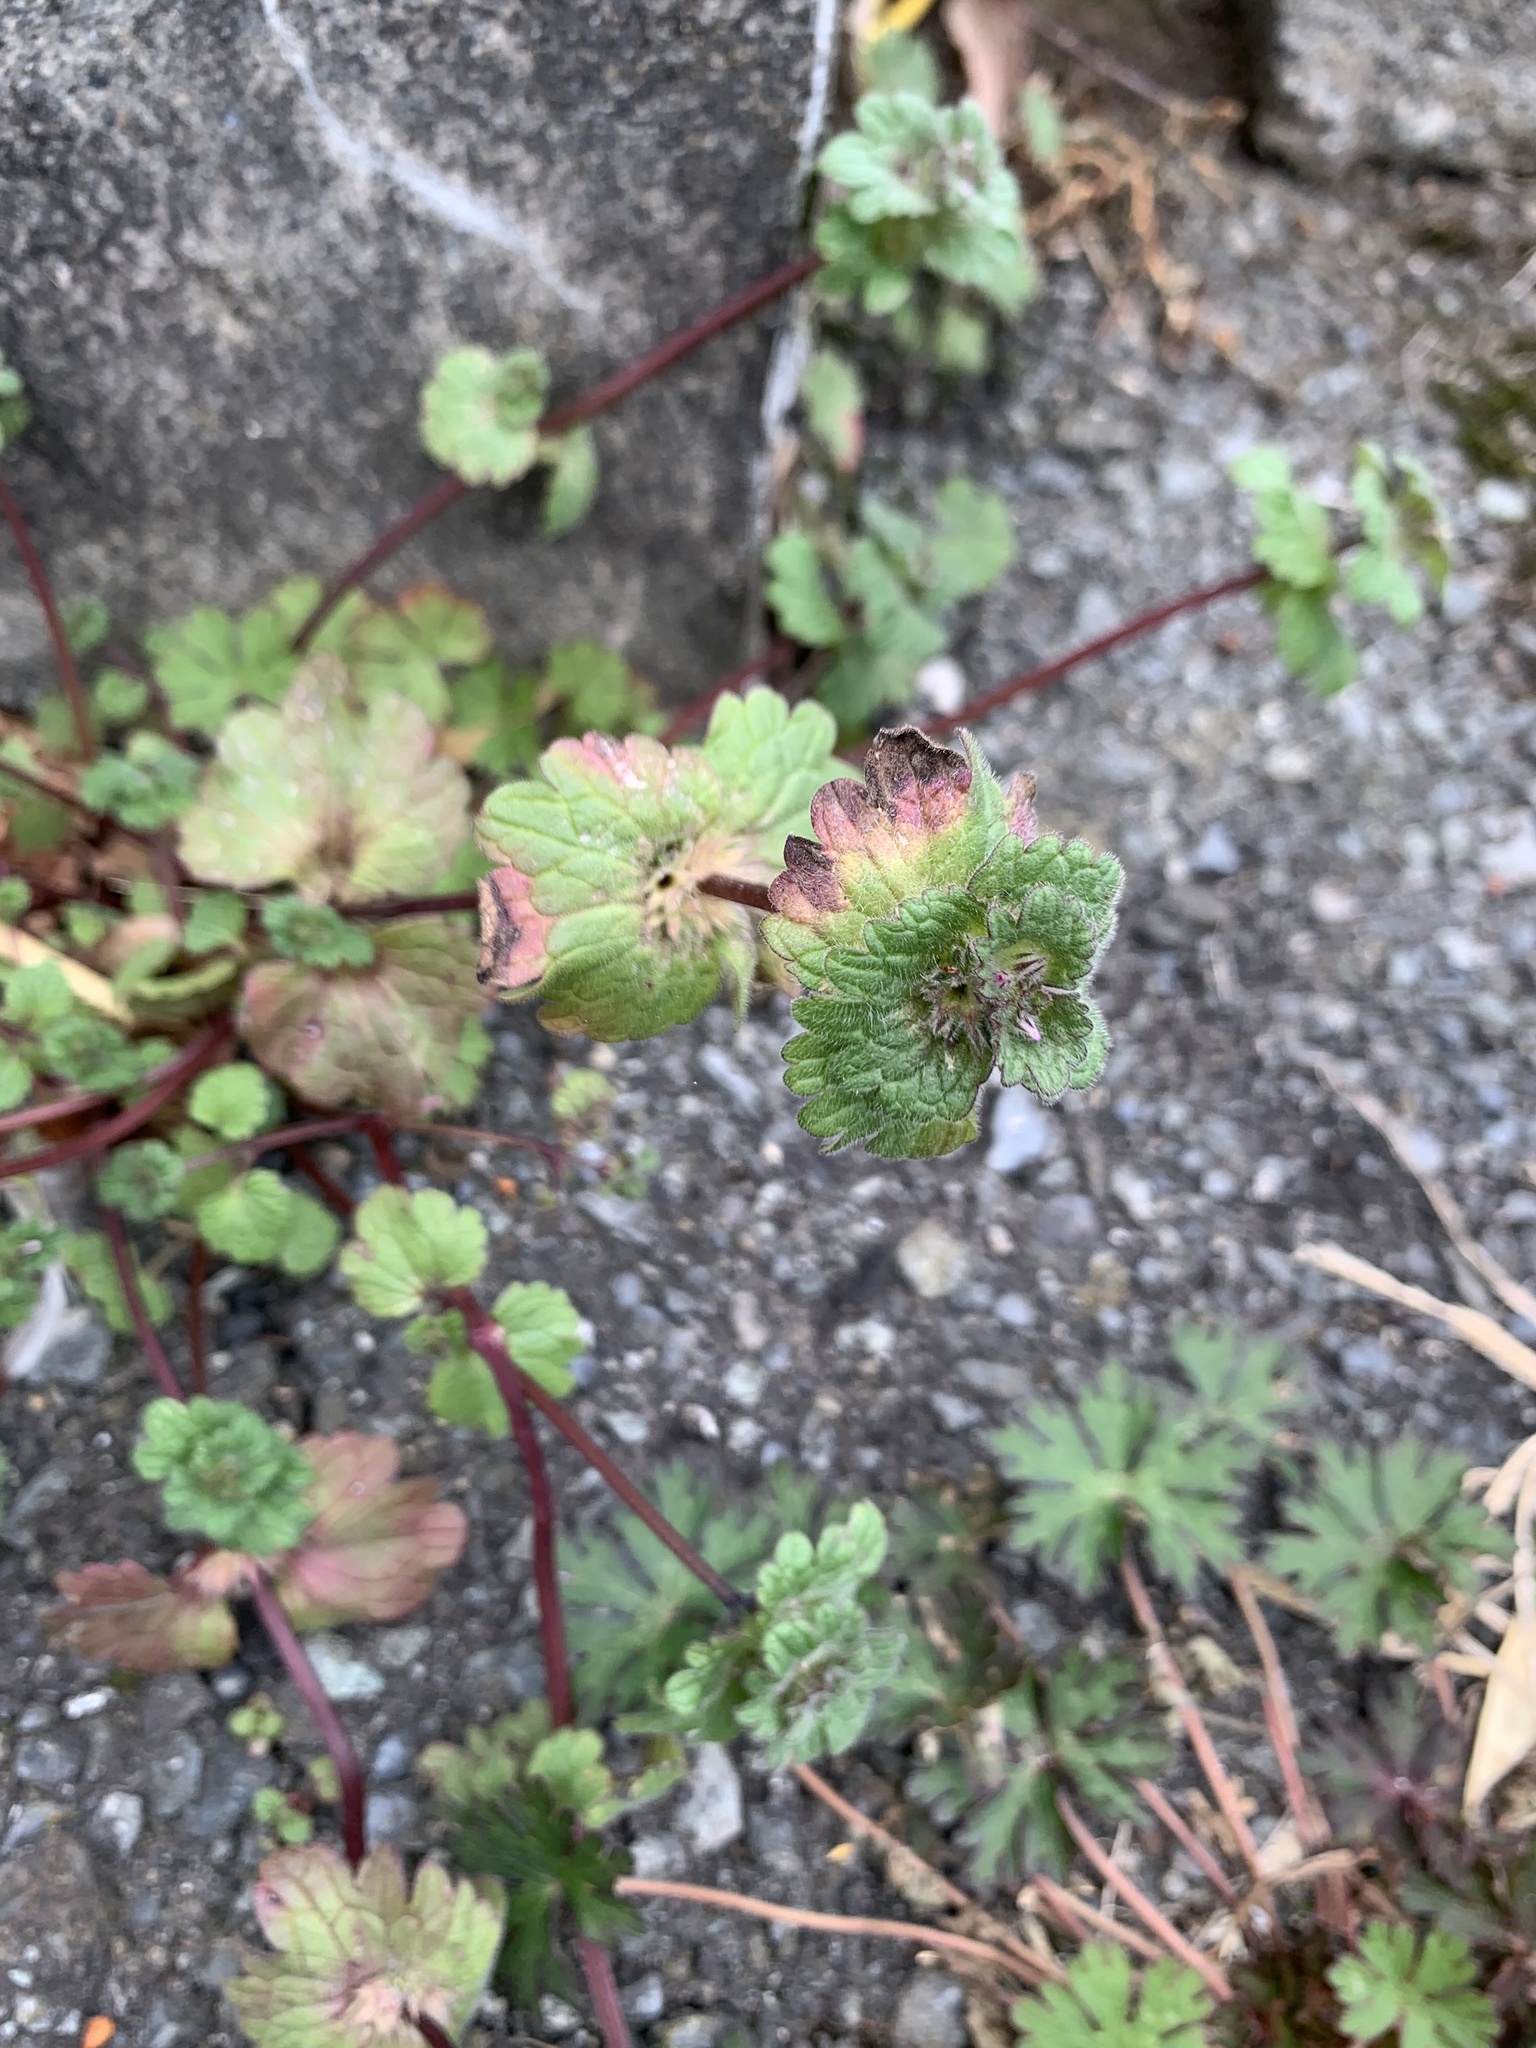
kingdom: Plantae
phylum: Tracheophyta
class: Magnoliopsida
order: Lamiales
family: Lamiaceae
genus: Lamium
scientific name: Lamium amplexicaule
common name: Henbit dead-nettle
